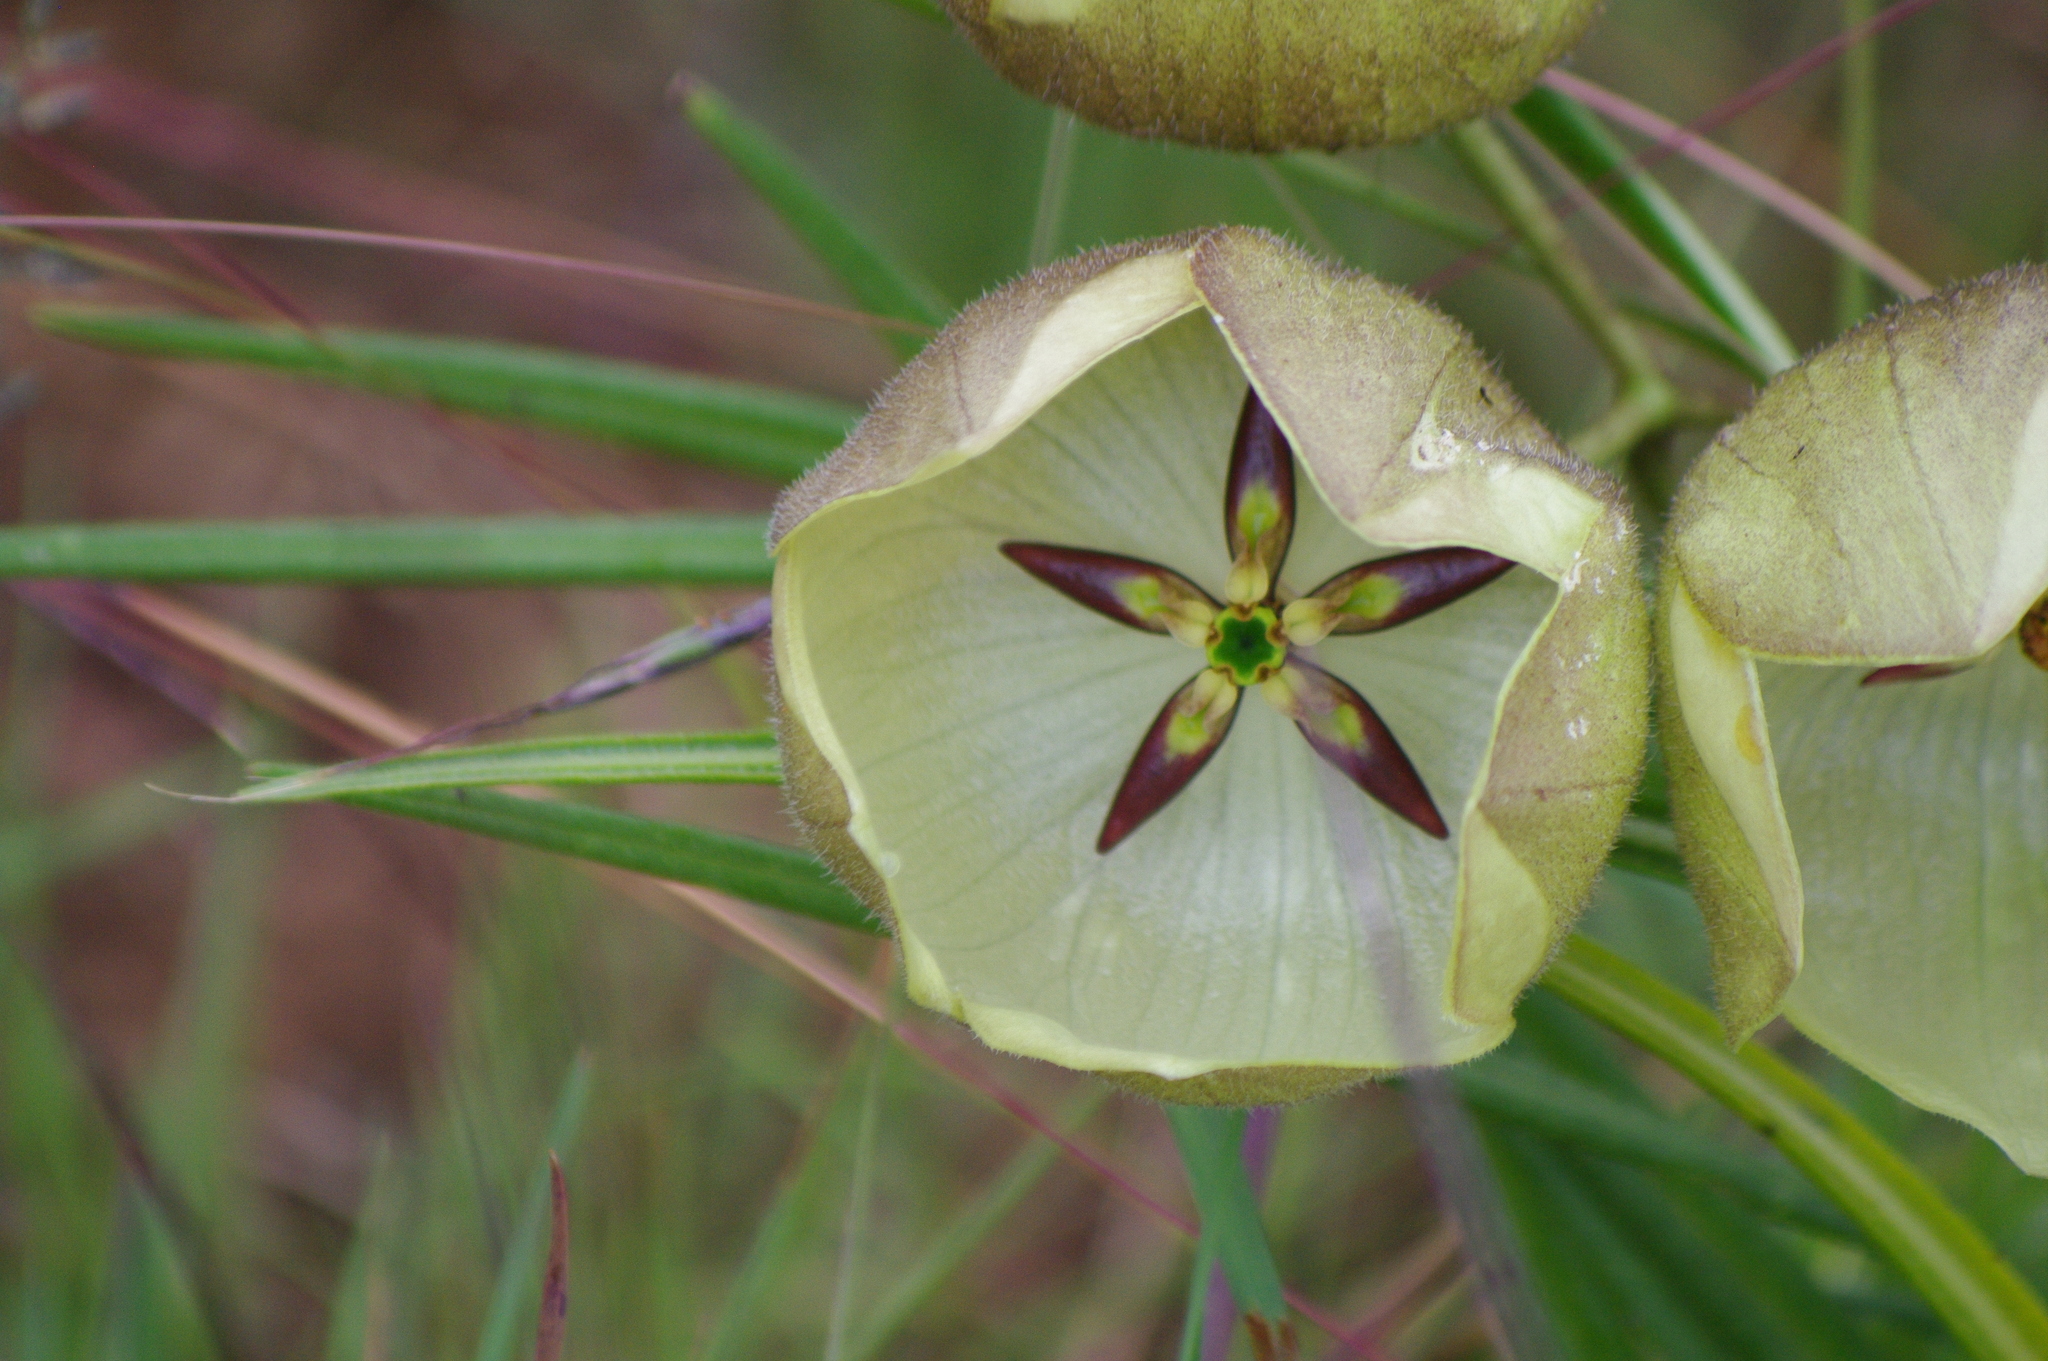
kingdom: Plantae
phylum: Tracheophyta
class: Magnoliopsida
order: Gentianales
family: Apocynaceae
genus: Pachycarpus
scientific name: Pachycarpus campanulatus
